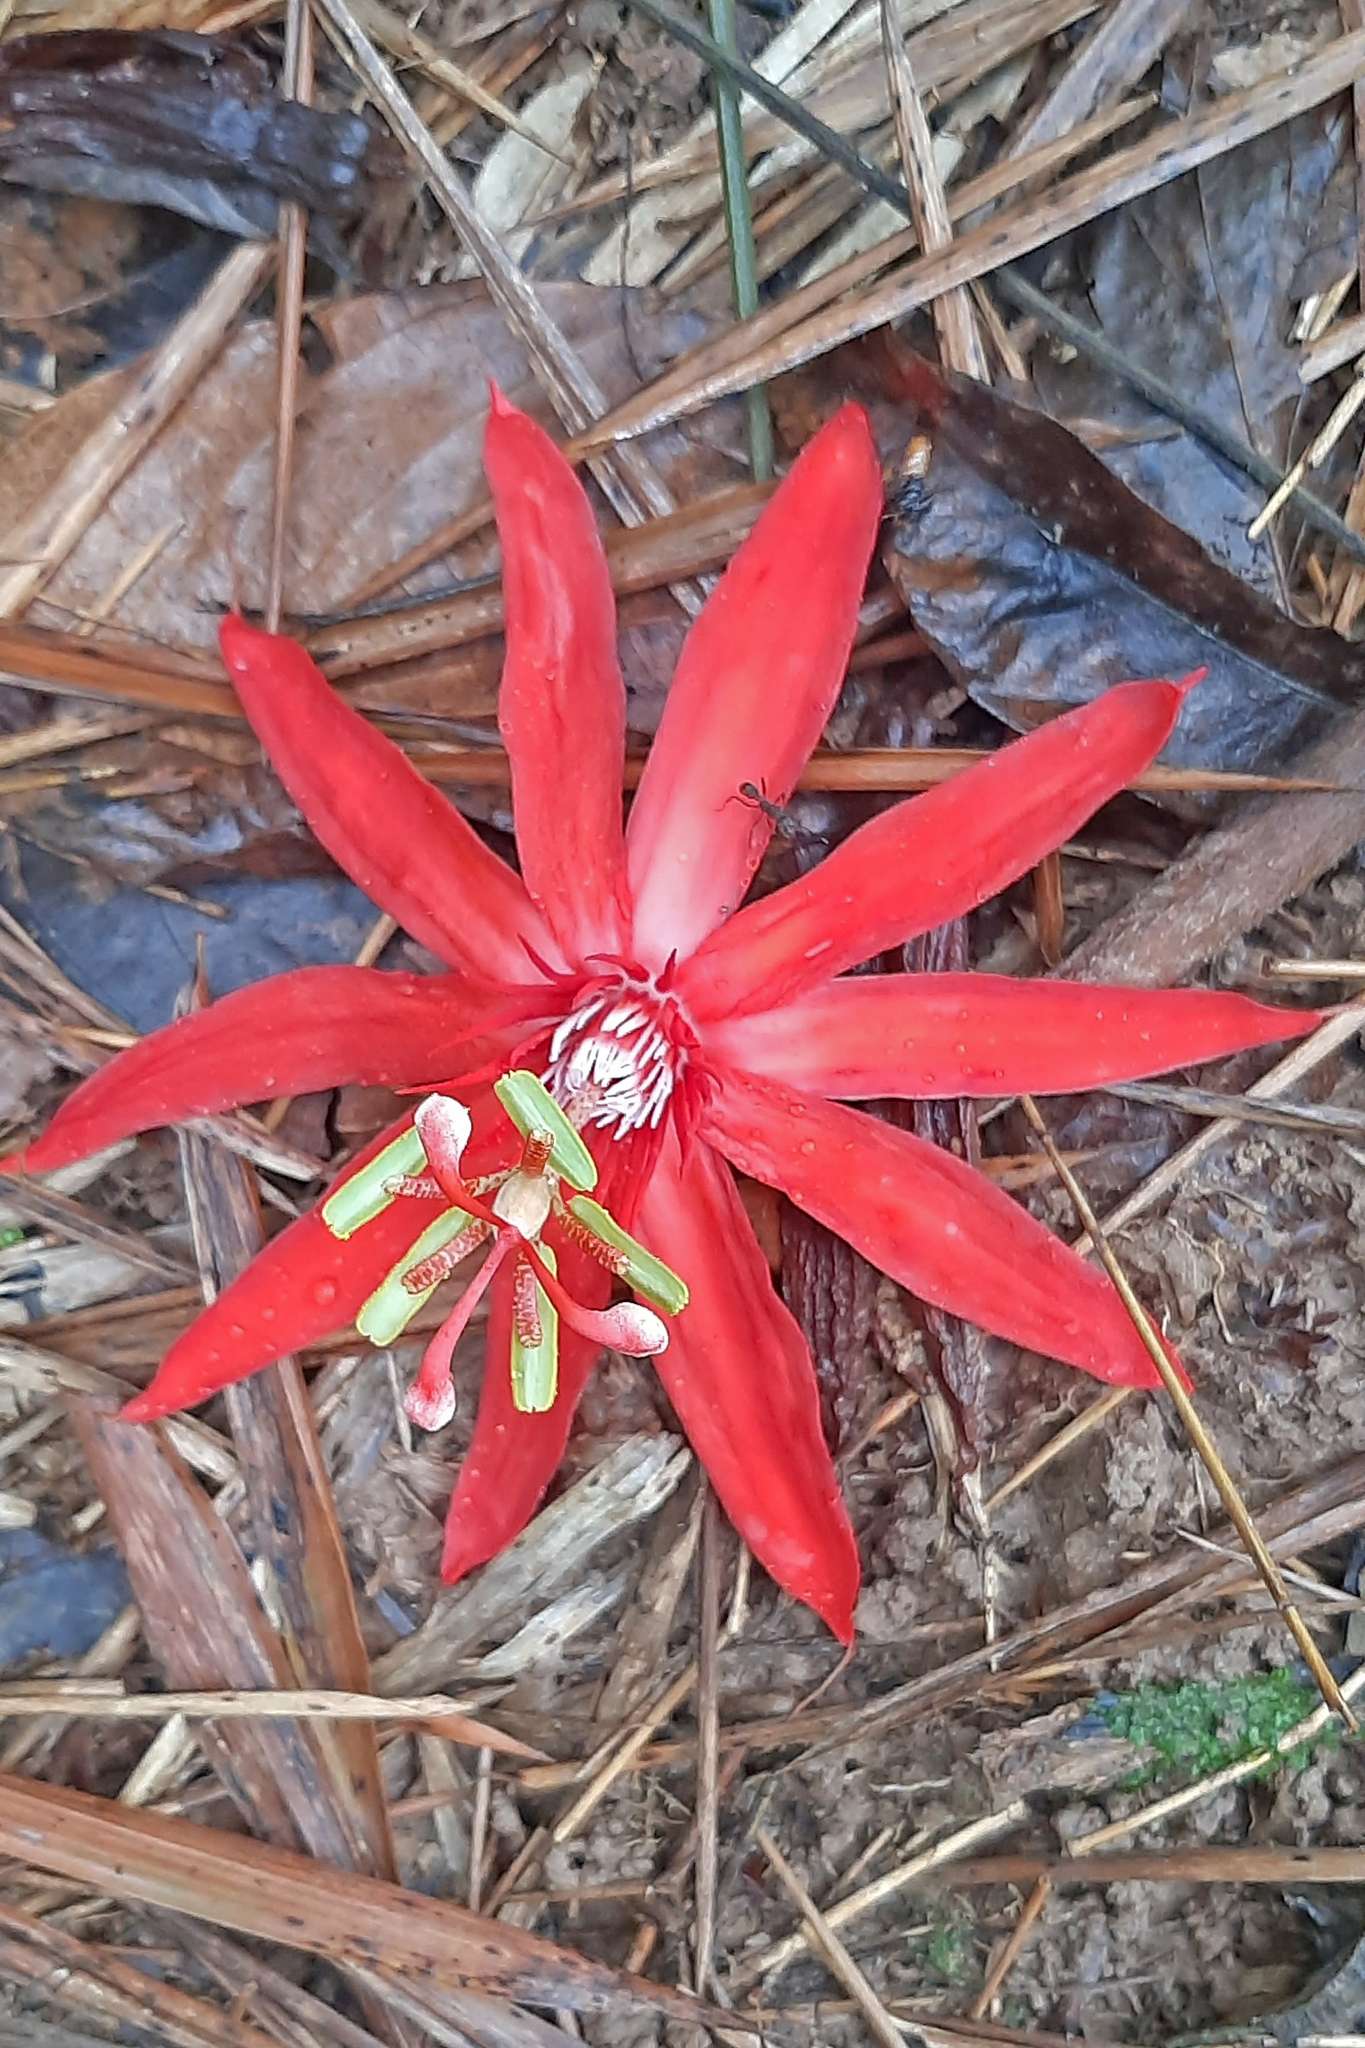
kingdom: Plantae
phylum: Tracheophyta
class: Magnoliopsida
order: Malpighiales
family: Passifloraceae
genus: Passiflora
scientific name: Passiflora vitifolia
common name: Perfumed passionflower
